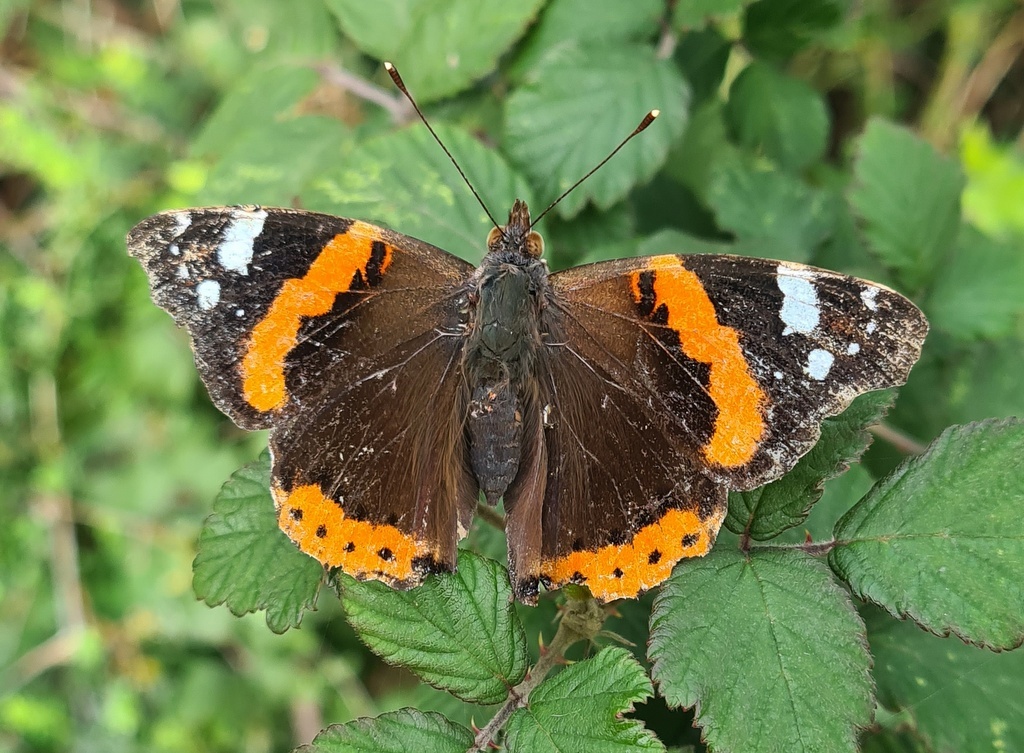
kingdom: Animalia
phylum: Arthropoda
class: Insecta
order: Lepidoptera
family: Nymphalidae
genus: Vanessa
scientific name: Vanessa atalanta
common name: Red admiral
